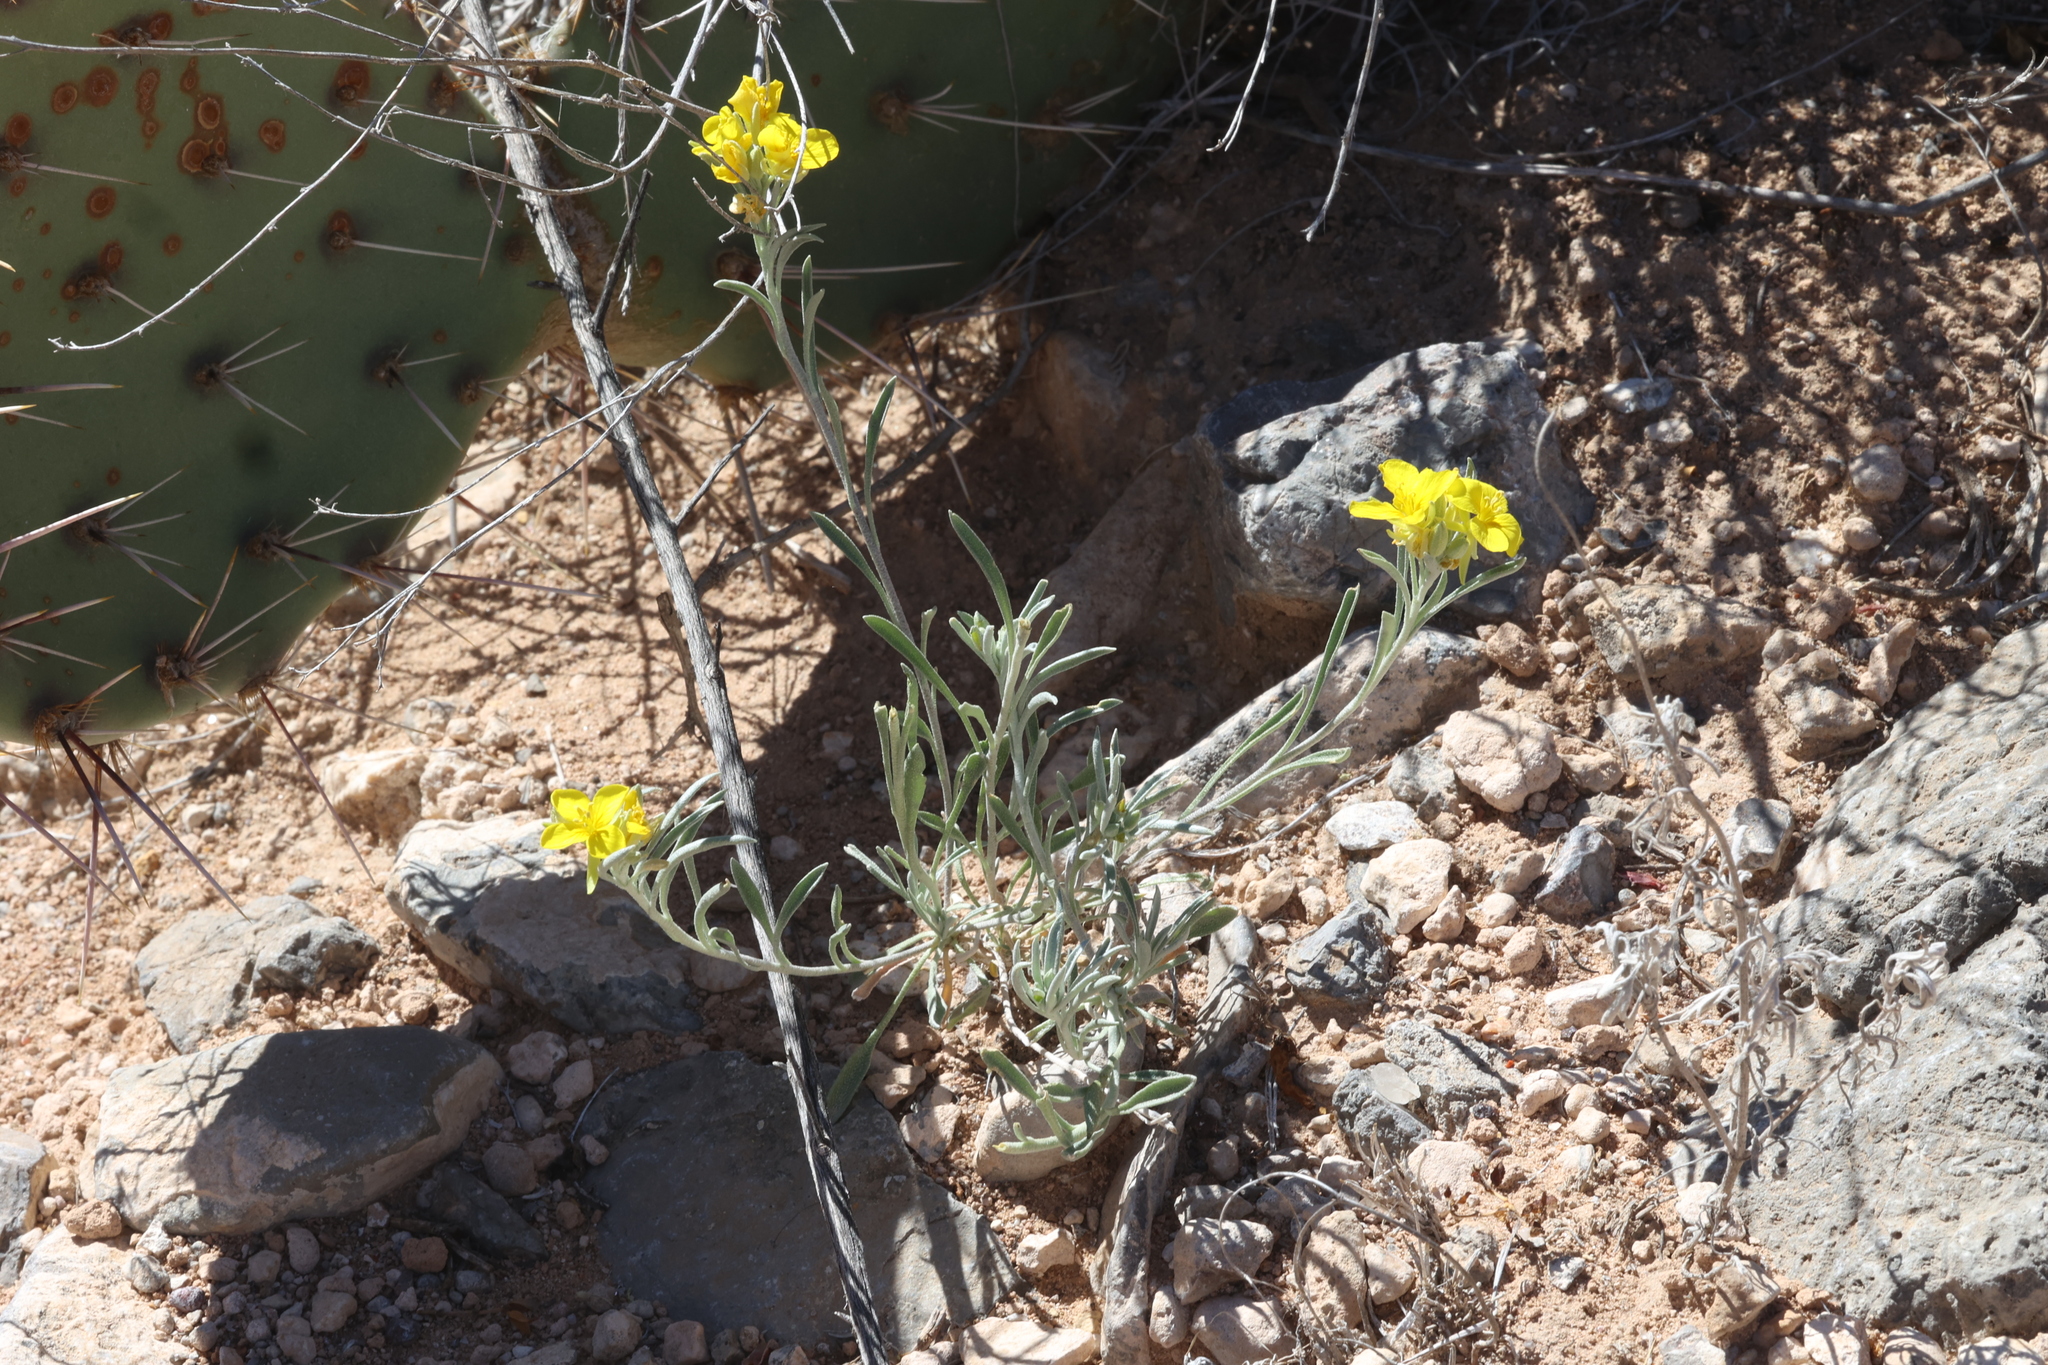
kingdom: Plantae
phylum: Tracheophyta
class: Magnoliopsida
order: Brassicales
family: Brassicaceae
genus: Physaria
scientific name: Physaria fendleri
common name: Fendler's bladderpod
